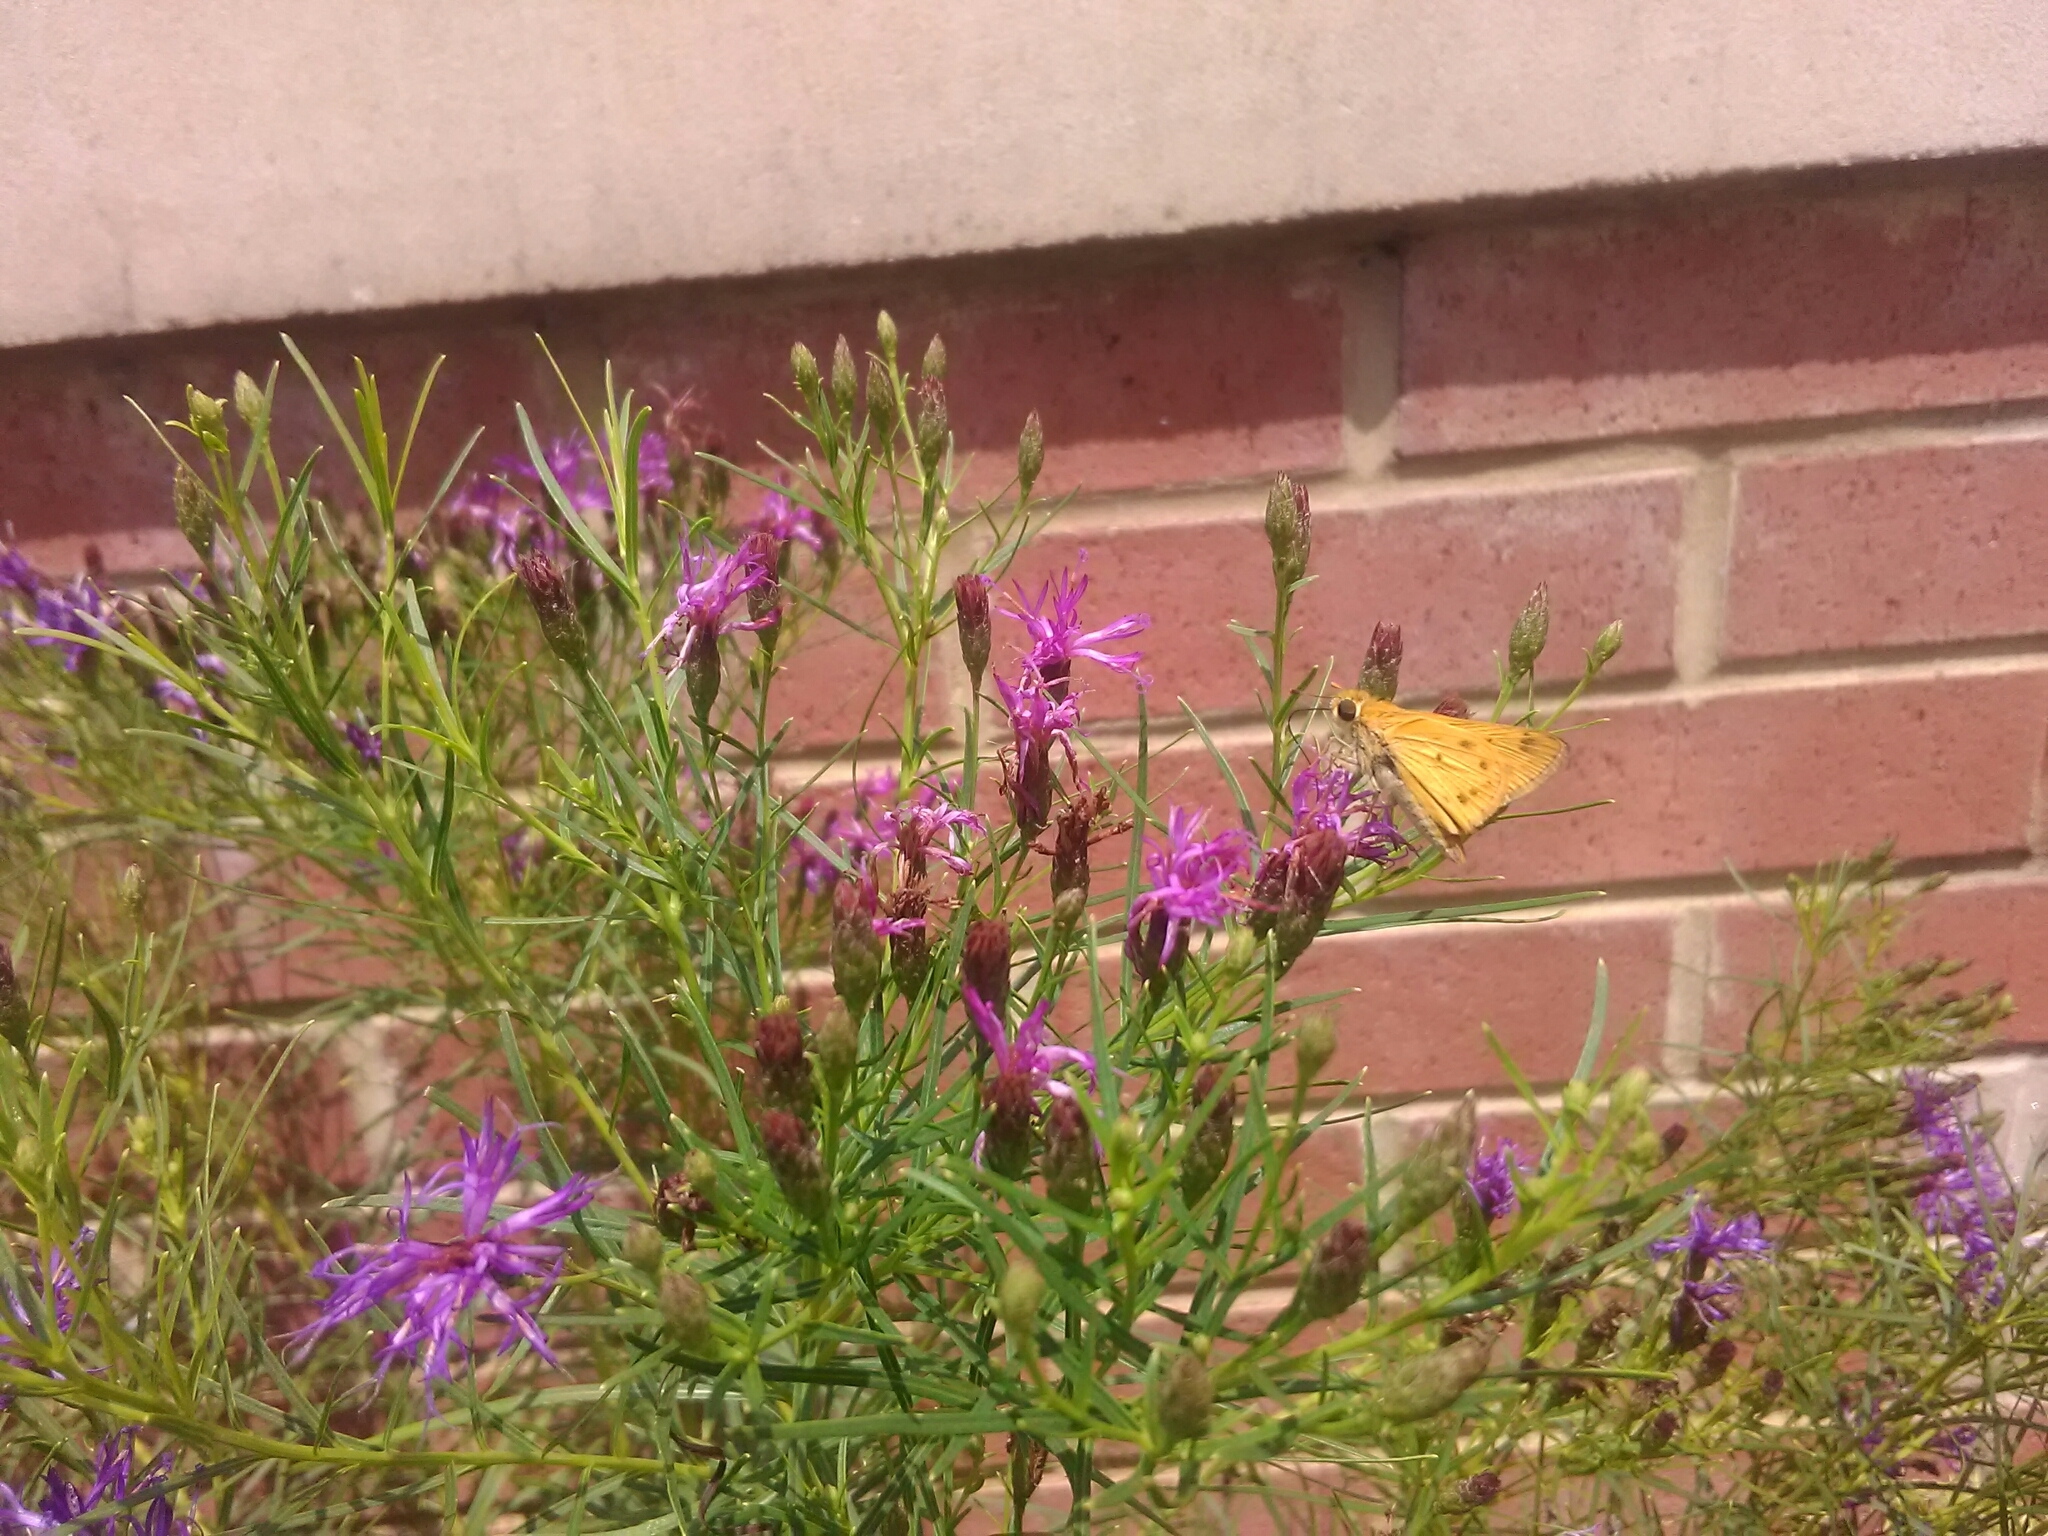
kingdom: Animalia
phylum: Arthropoda
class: Insecta
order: Lepidoptera
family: Hesperiidae
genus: Hylephila
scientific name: Hylephila phyleus
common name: Fiery skipper
